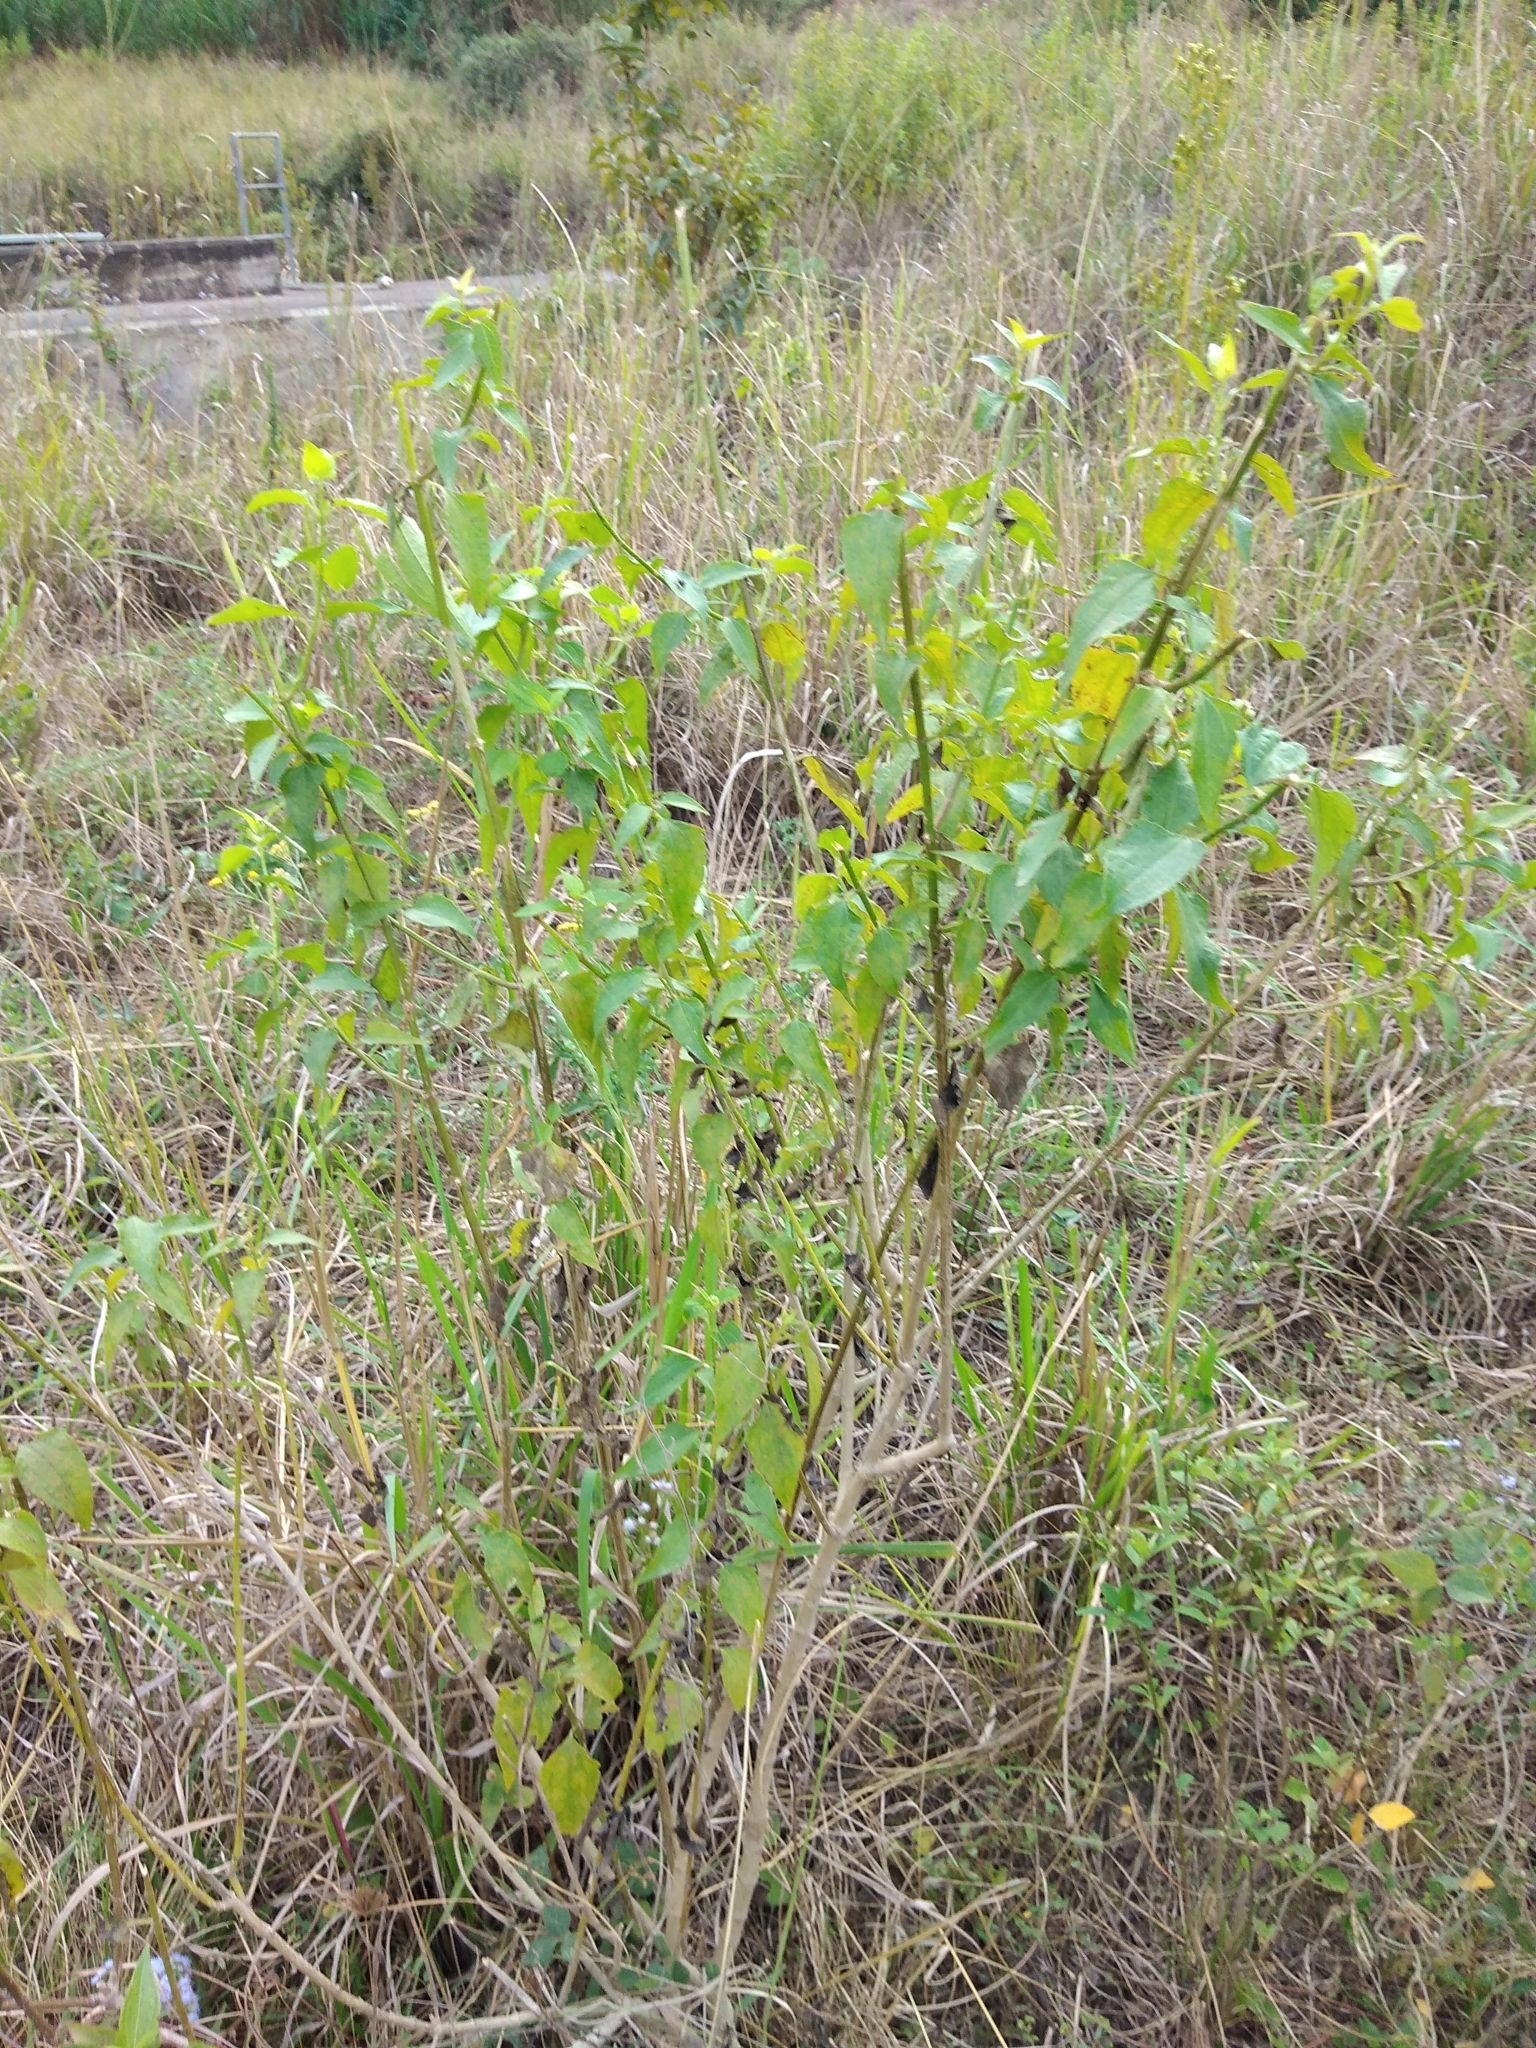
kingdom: Plantae
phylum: Tracheophyta
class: Magnoliopsida
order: Asterales
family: Asteraceae
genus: Chromolaena
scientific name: Chromolaena odorata
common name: Siamweed
